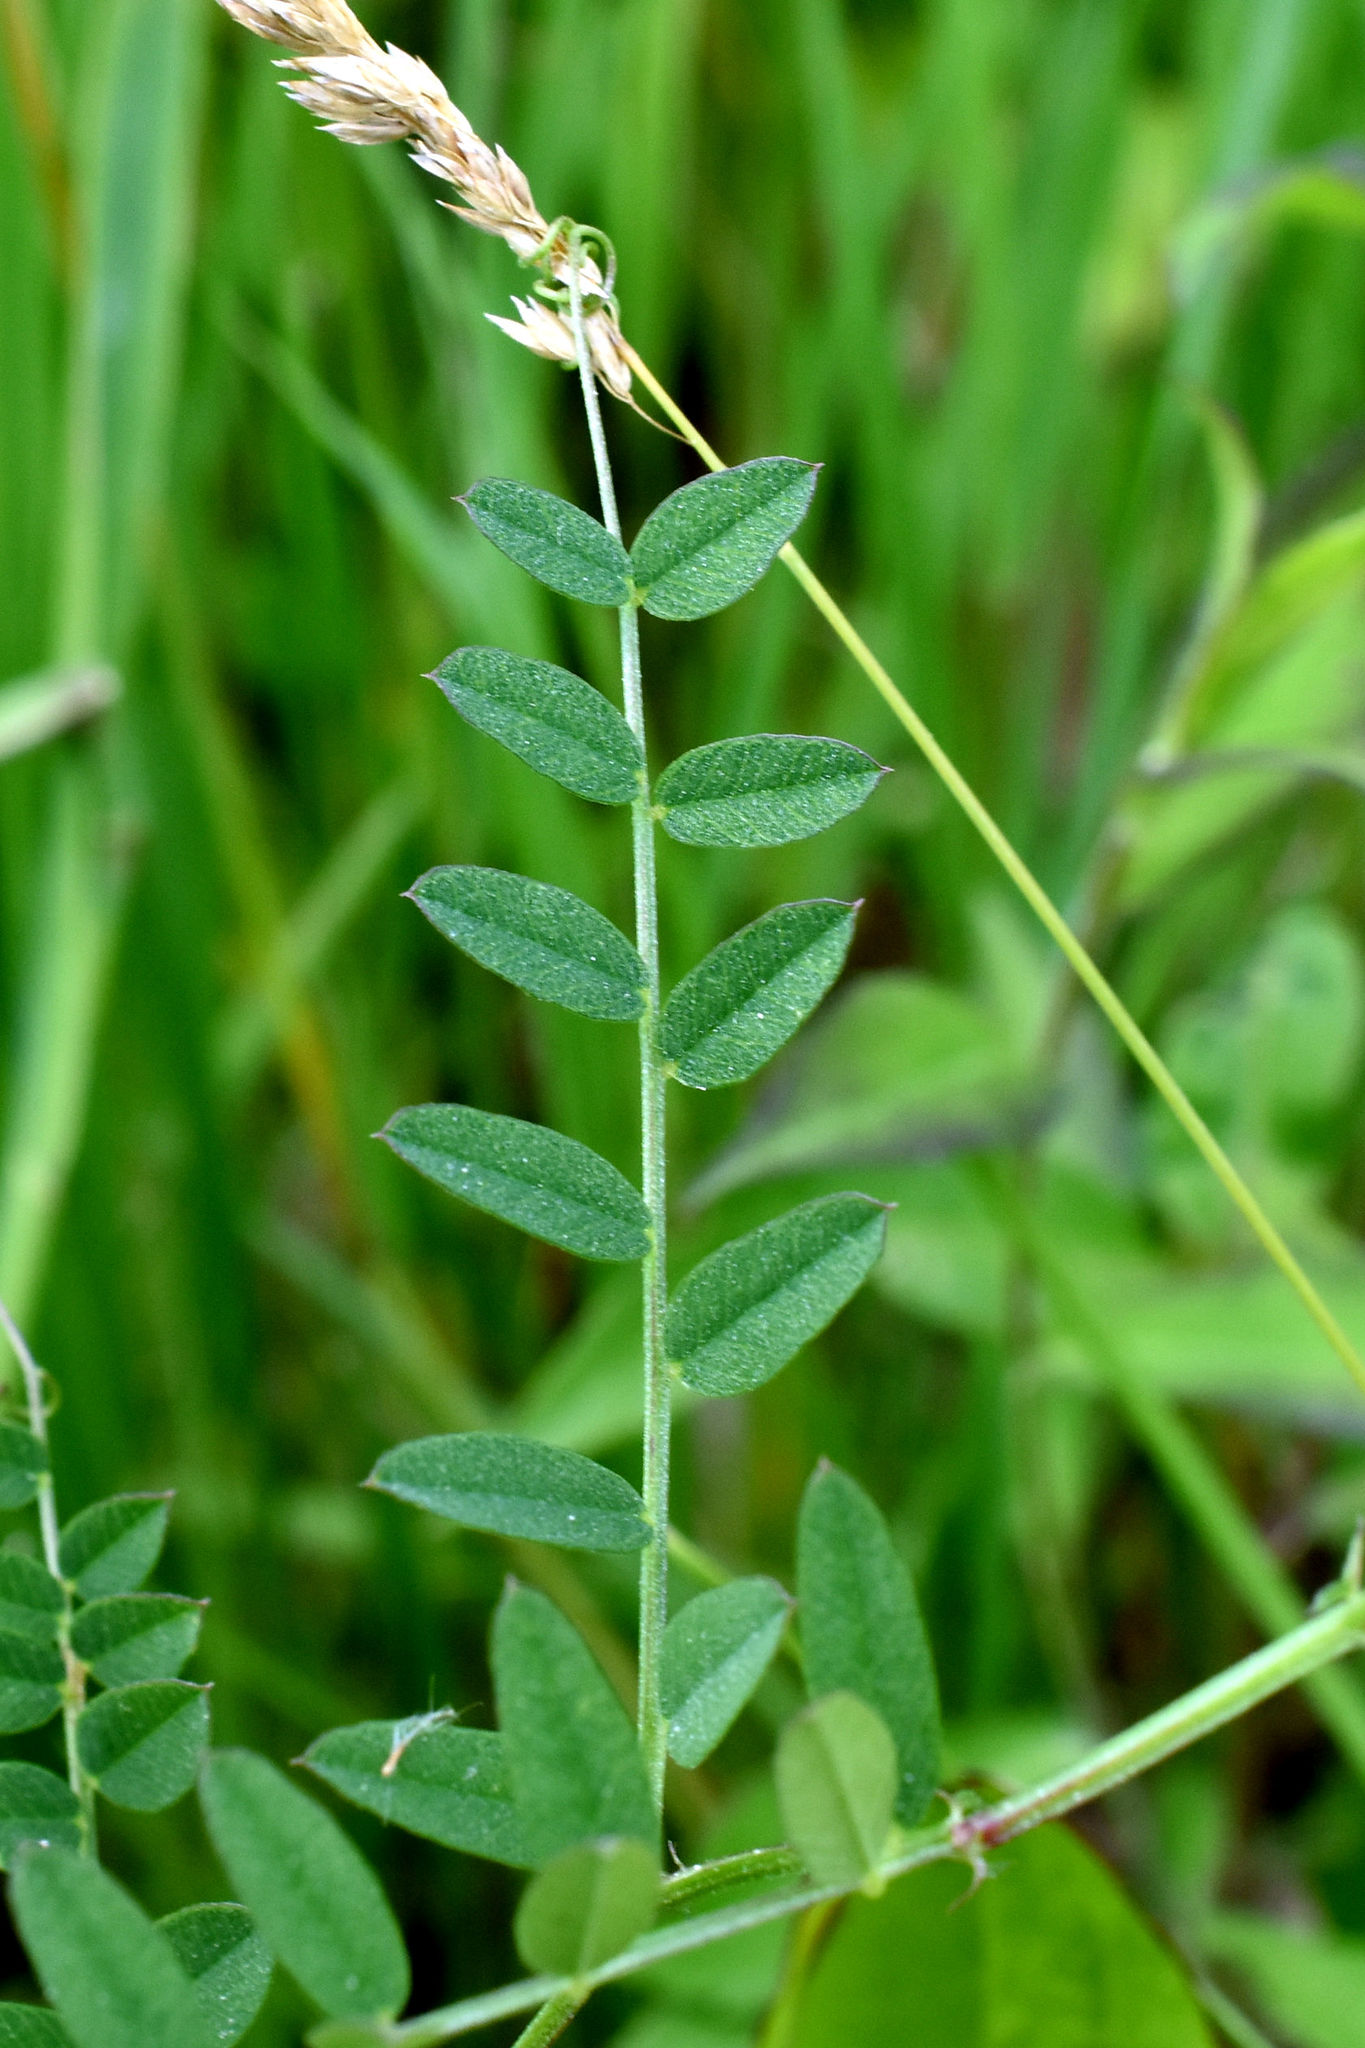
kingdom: Plantae
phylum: Tracheophyta
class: Magnoliopsida
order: Fabales
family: Fabaceae
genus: Vicia
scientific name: Vicia americana
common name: American vetch
